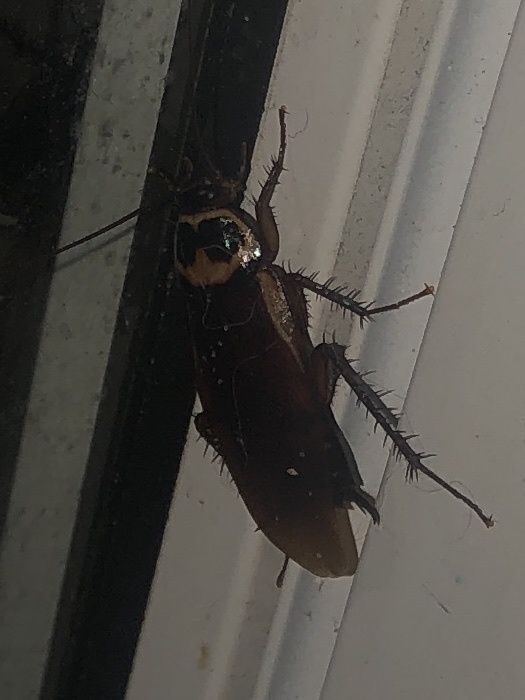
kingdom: Animalia
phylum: Arthropoda
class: Insecta
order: Blattodea
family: Blattidae
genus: Periplaneta
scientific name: Periplaneta australasiae
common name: Australian cockroach
